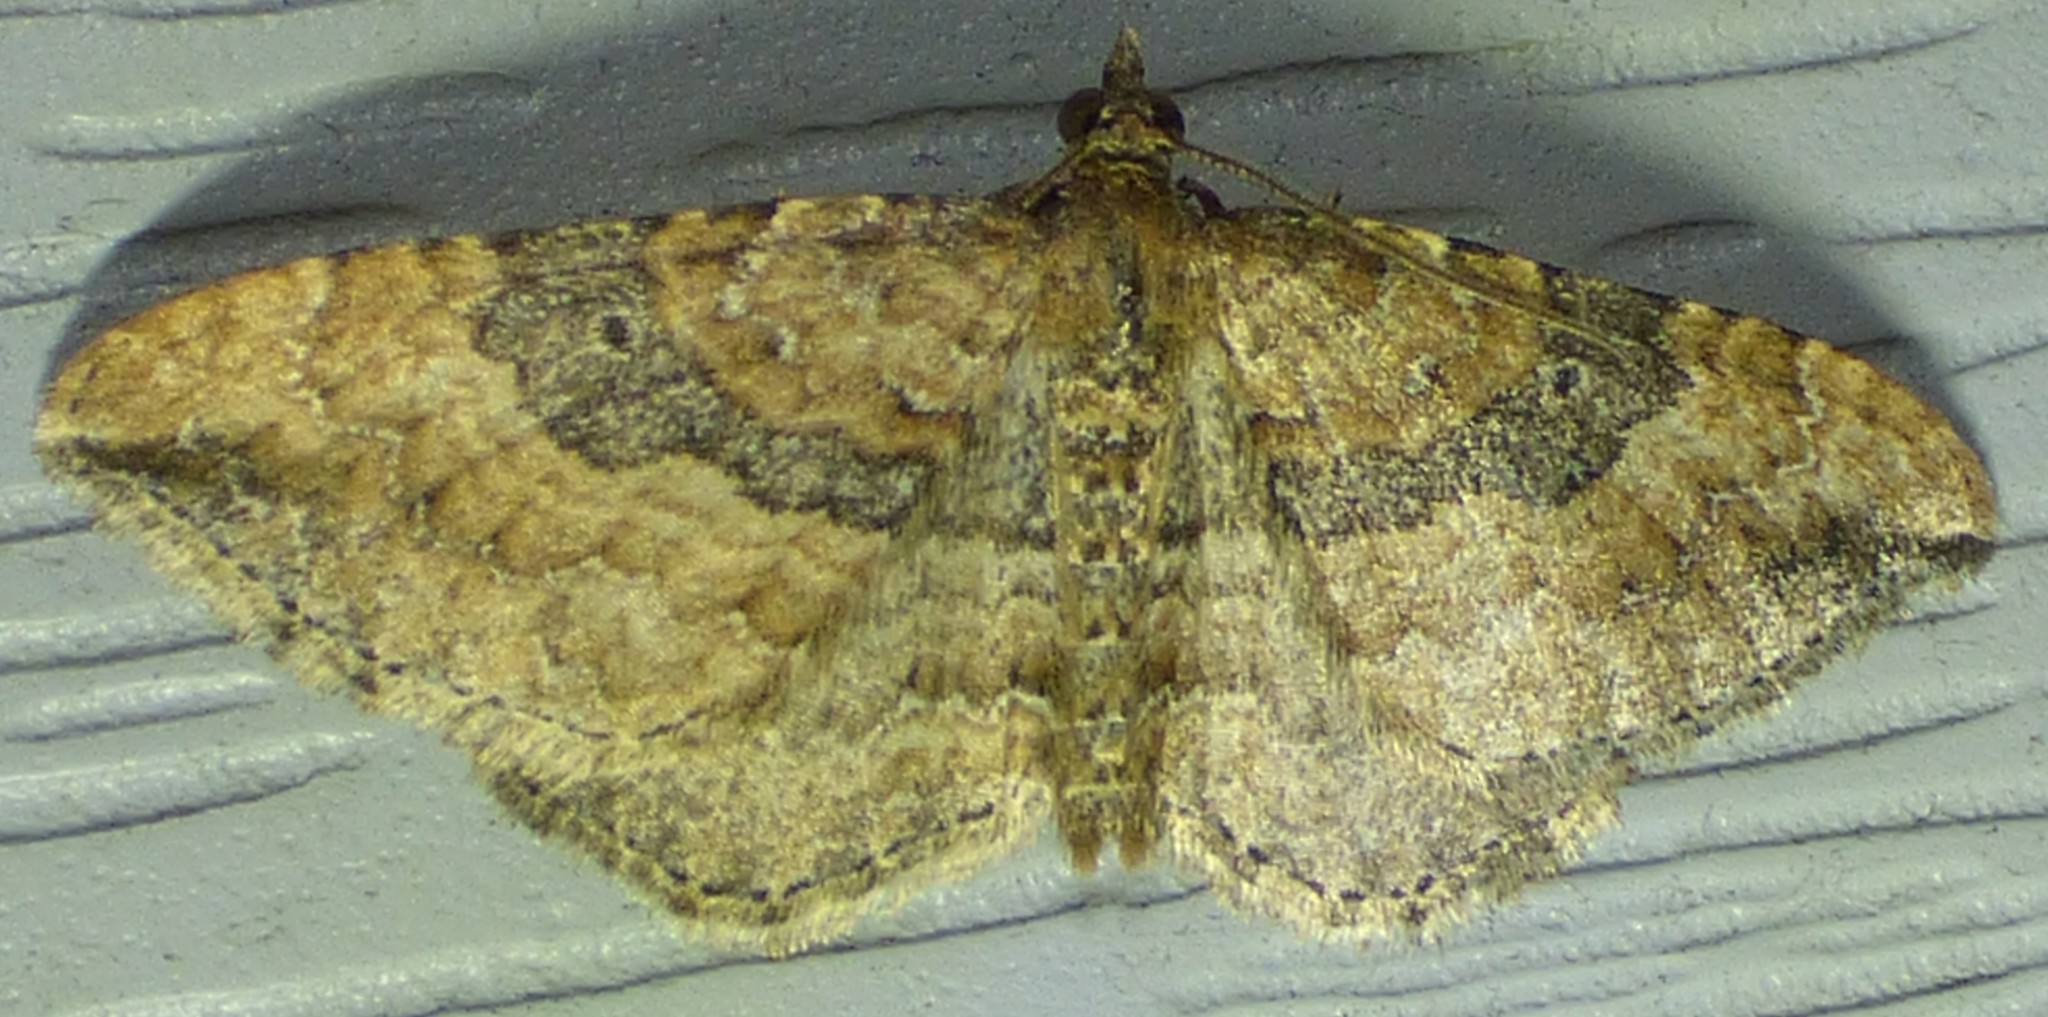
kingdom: Animalia
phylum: Arthropoda
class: Insecta
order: Lepidoptera
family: Geometridae
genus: Orthonama
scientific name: Orthonama obstipata
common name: The gem
